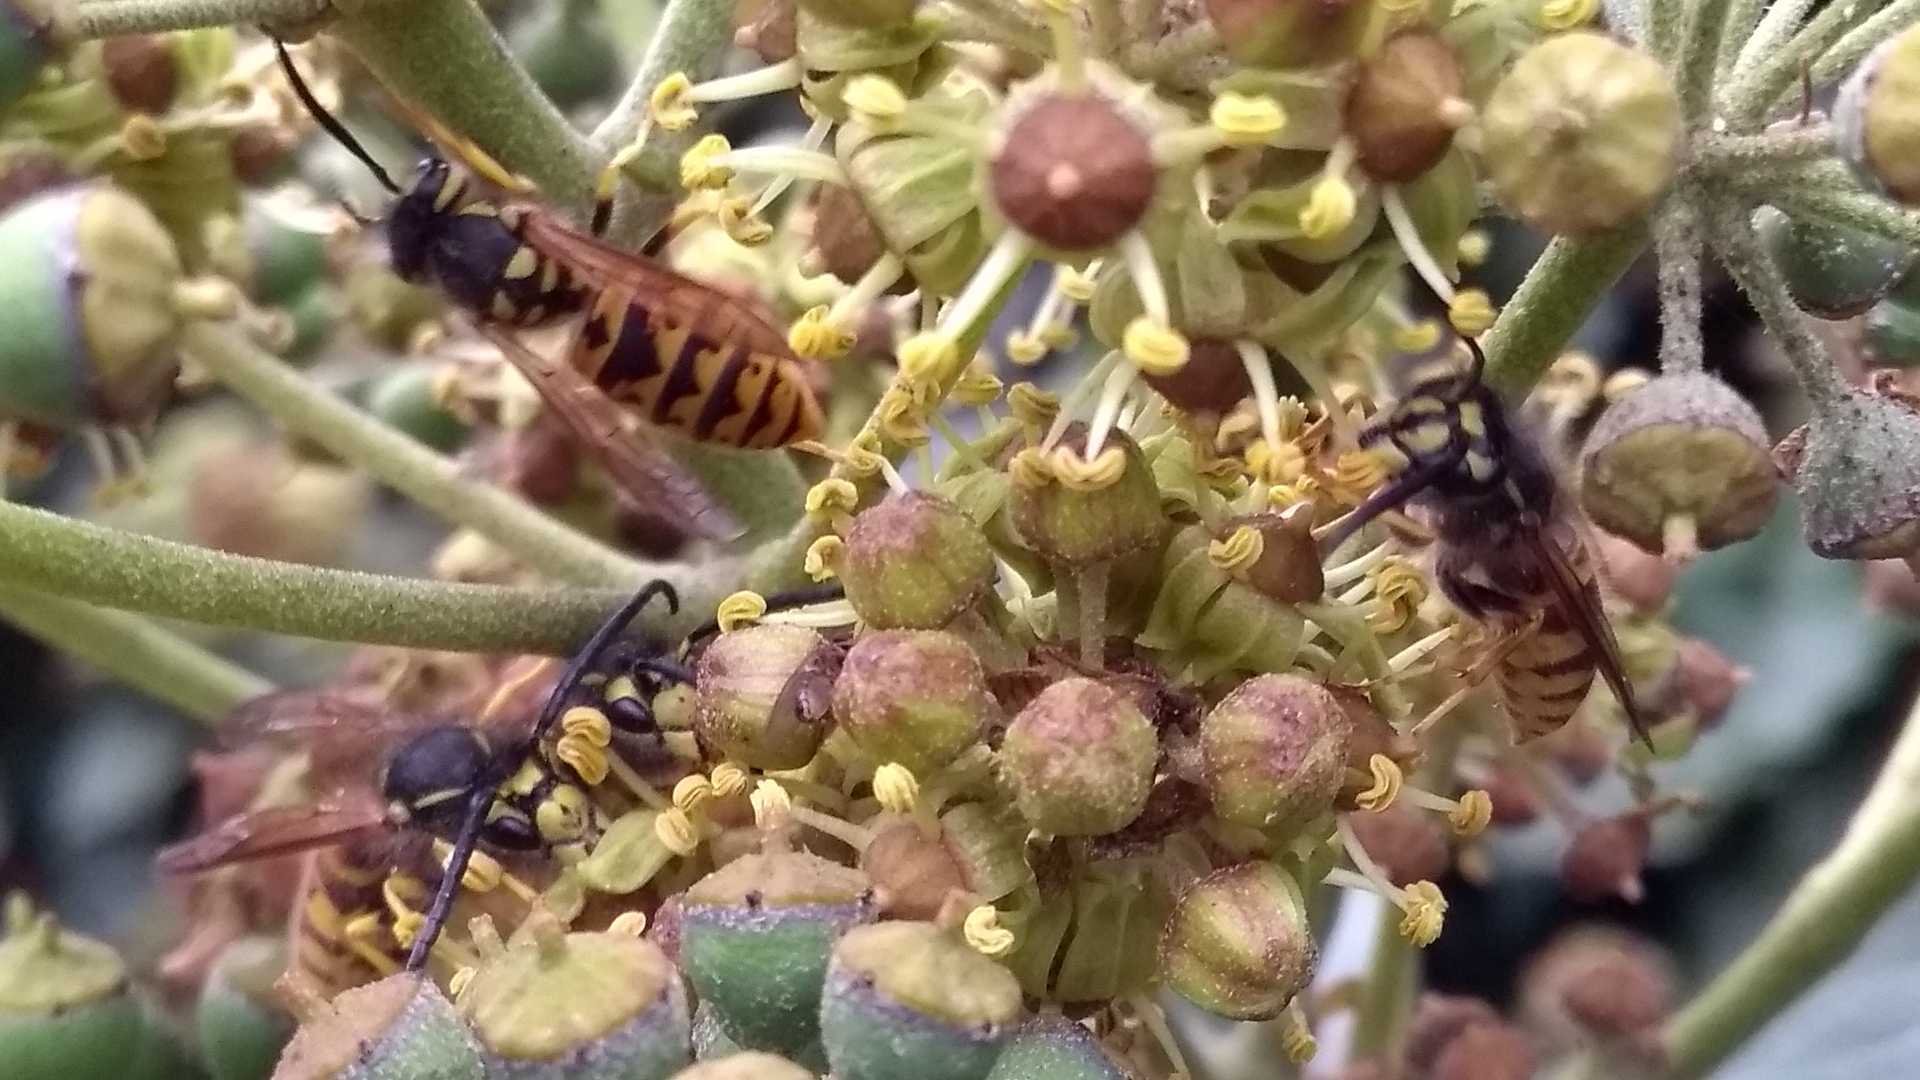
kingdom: Animalia
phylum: Arthropoda
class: Insecta
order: Hymenoptera
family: Vespidae
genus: Vespula
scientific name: Vespula vulgaris
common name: Common wasp
